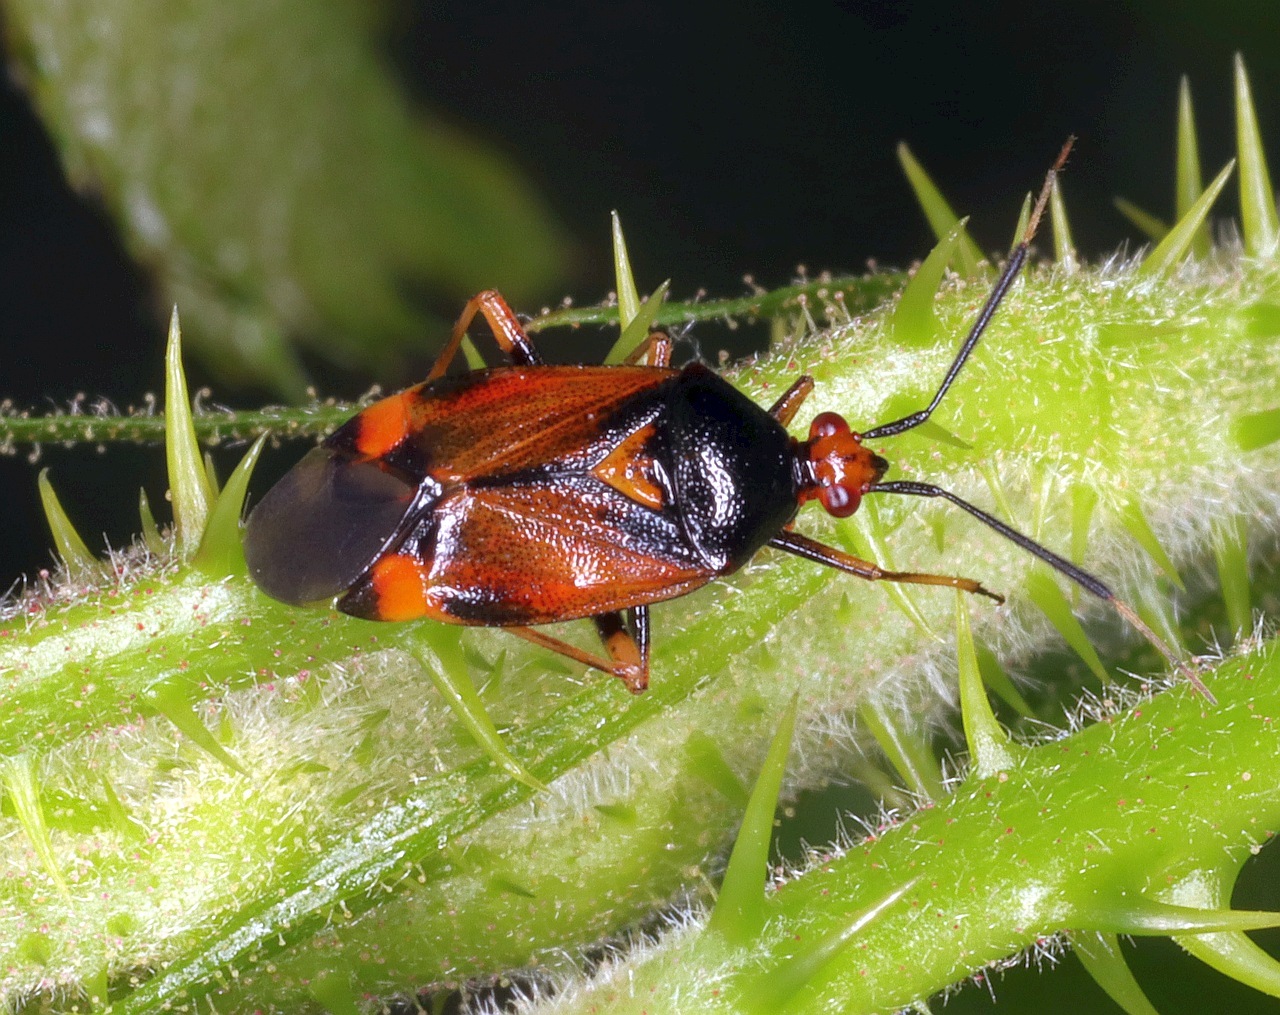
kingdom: Animalia
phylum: Arthropoda
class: Insecta
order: Hemiptera
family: Miridae
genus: Deraeocoris
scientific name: Deraeocoris ruber
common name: Plant bug
